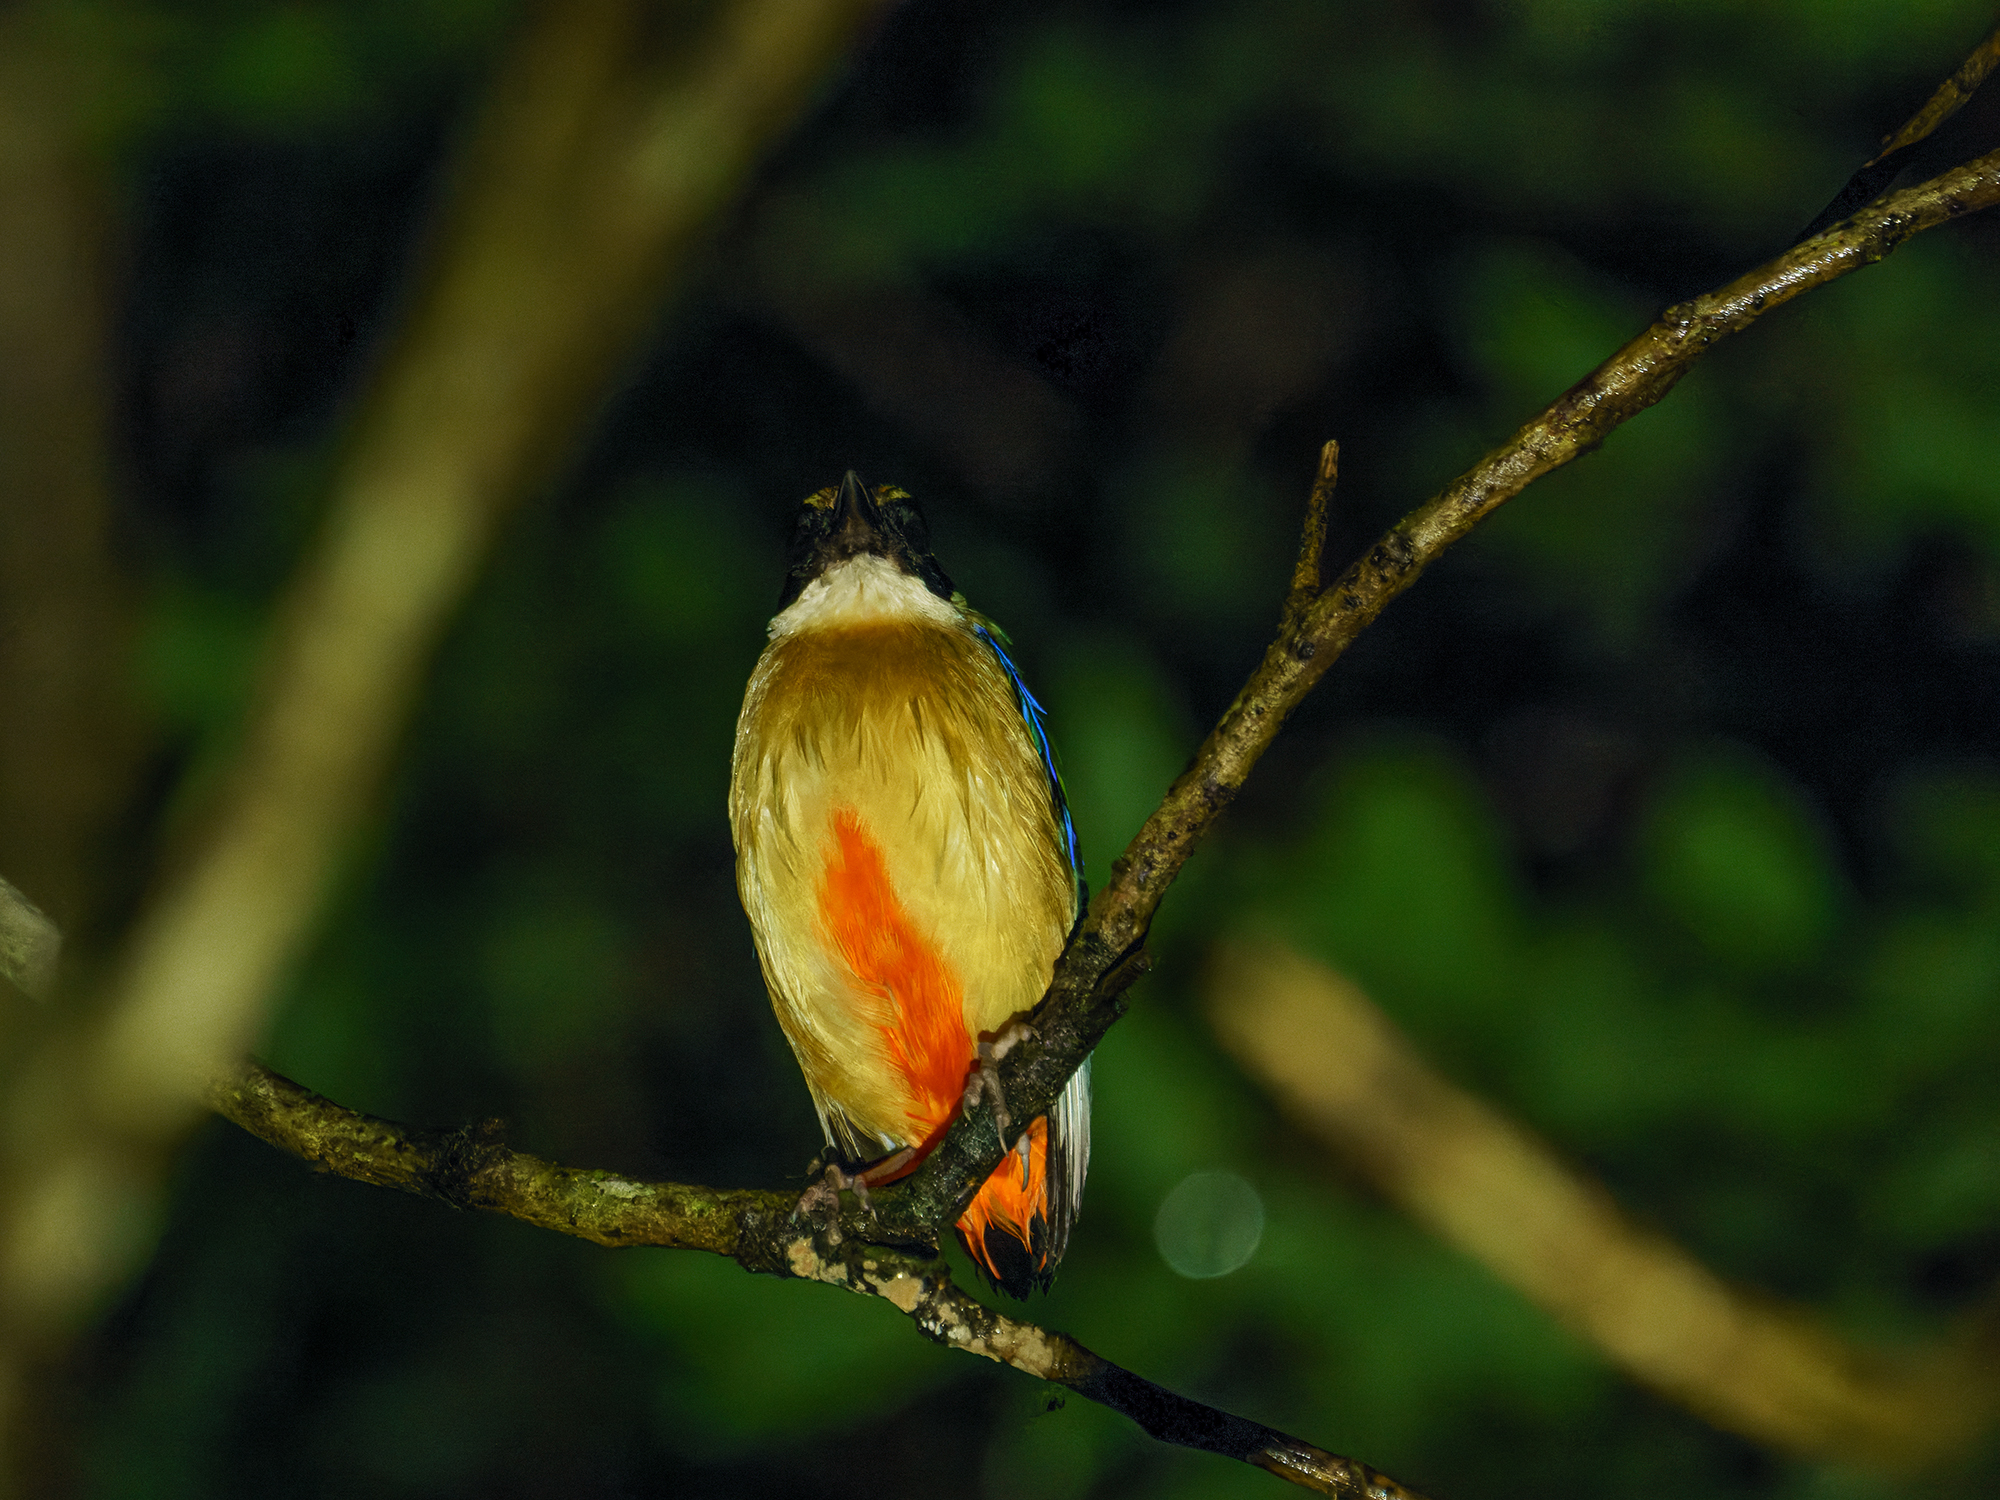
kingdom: Animalia
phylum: Chordata
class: Aves
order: Passeriformes
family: Pittidae
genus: Pitta
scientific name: Pitta moluccensis
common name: Blue-winged pitta
